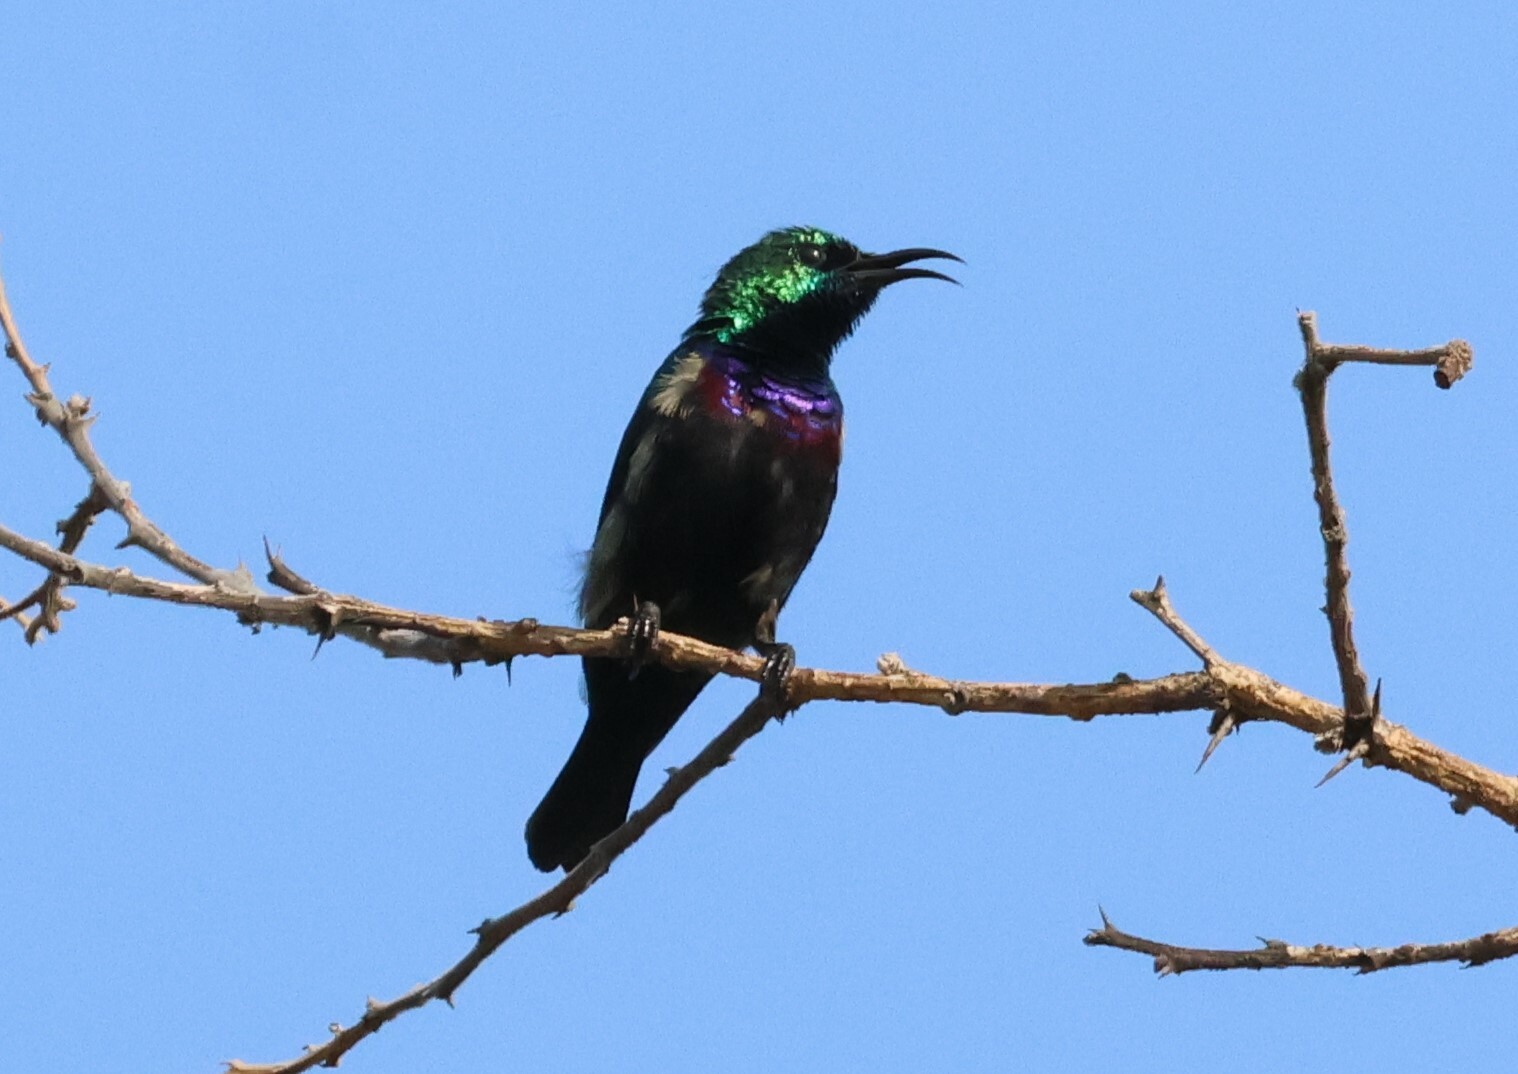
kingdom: Animalia
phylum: Chordata
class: Aves
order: Passeriformes
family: Nectariniidae
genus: Cinnyris
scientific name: Cinnyris bifasciatus
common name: Purple-banded sunbird
